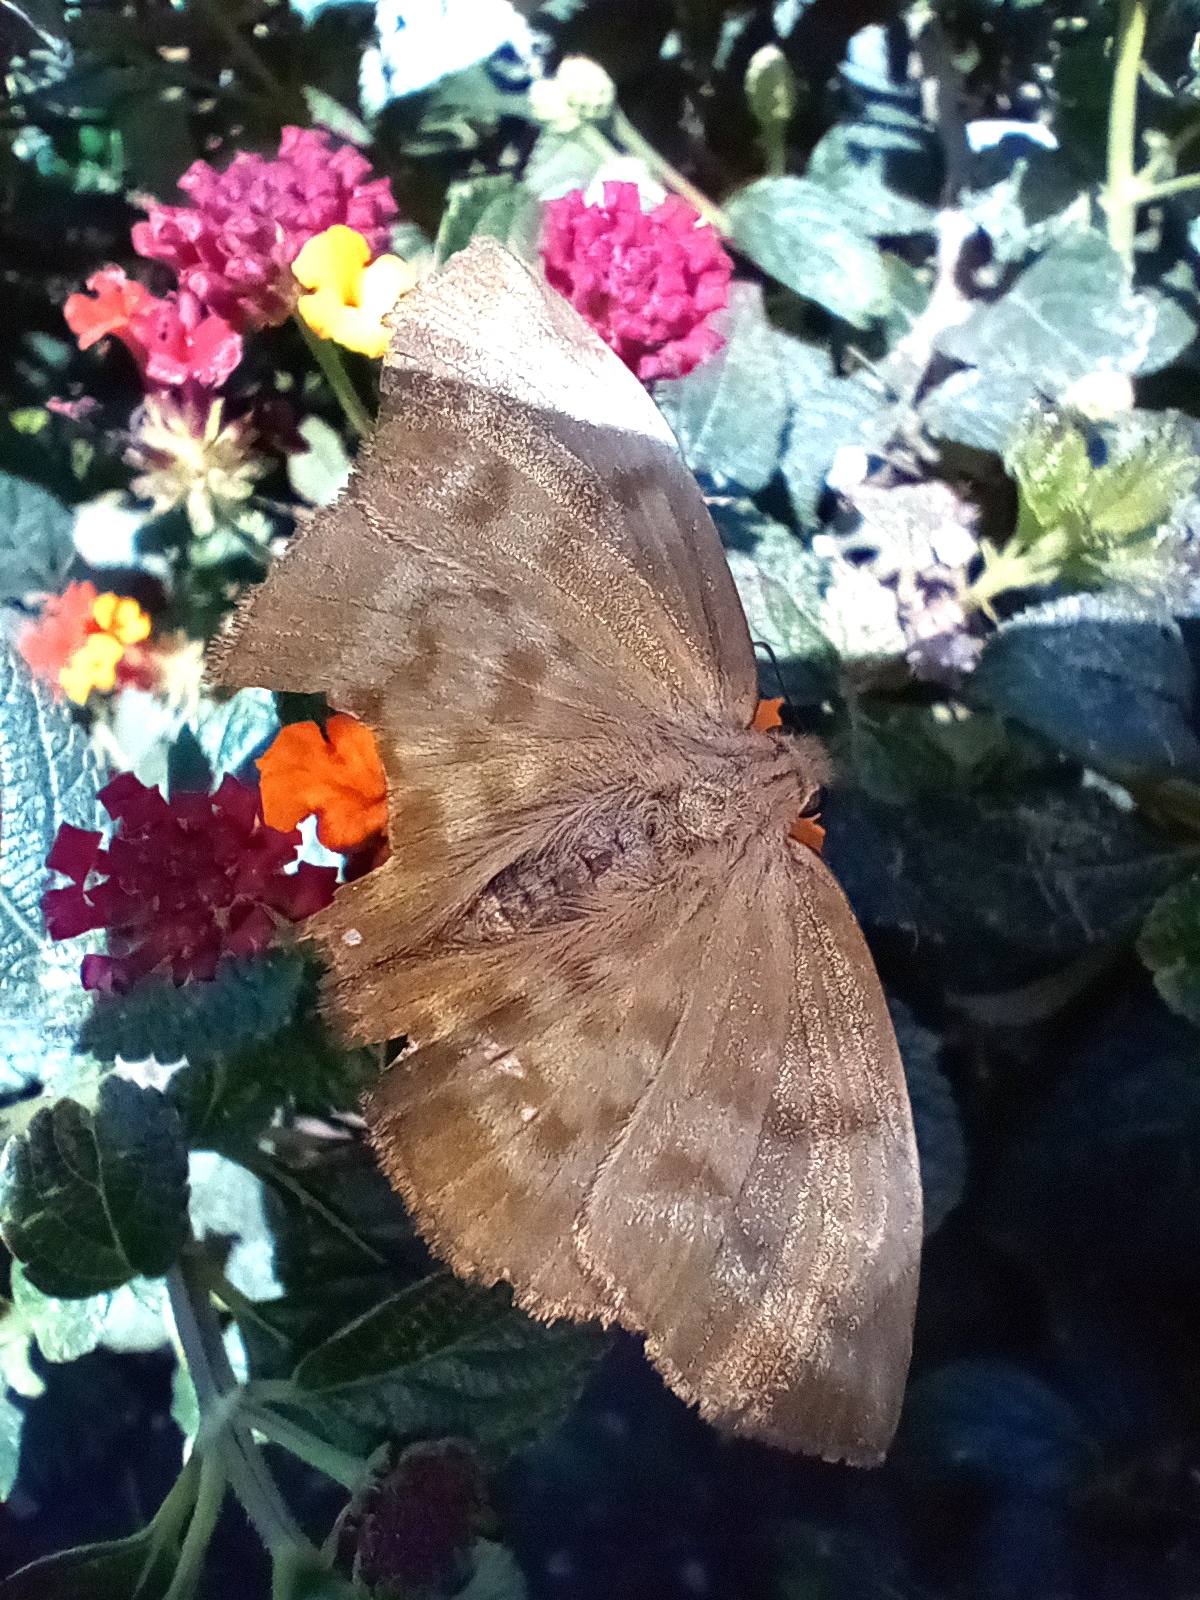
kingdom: Animalia
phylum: Arthropoda
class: Insecta
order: Lepidoptera
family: Hesperiidae
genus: Achlyodes
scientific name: Achlyodes pallida
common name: Pale sicklewing
